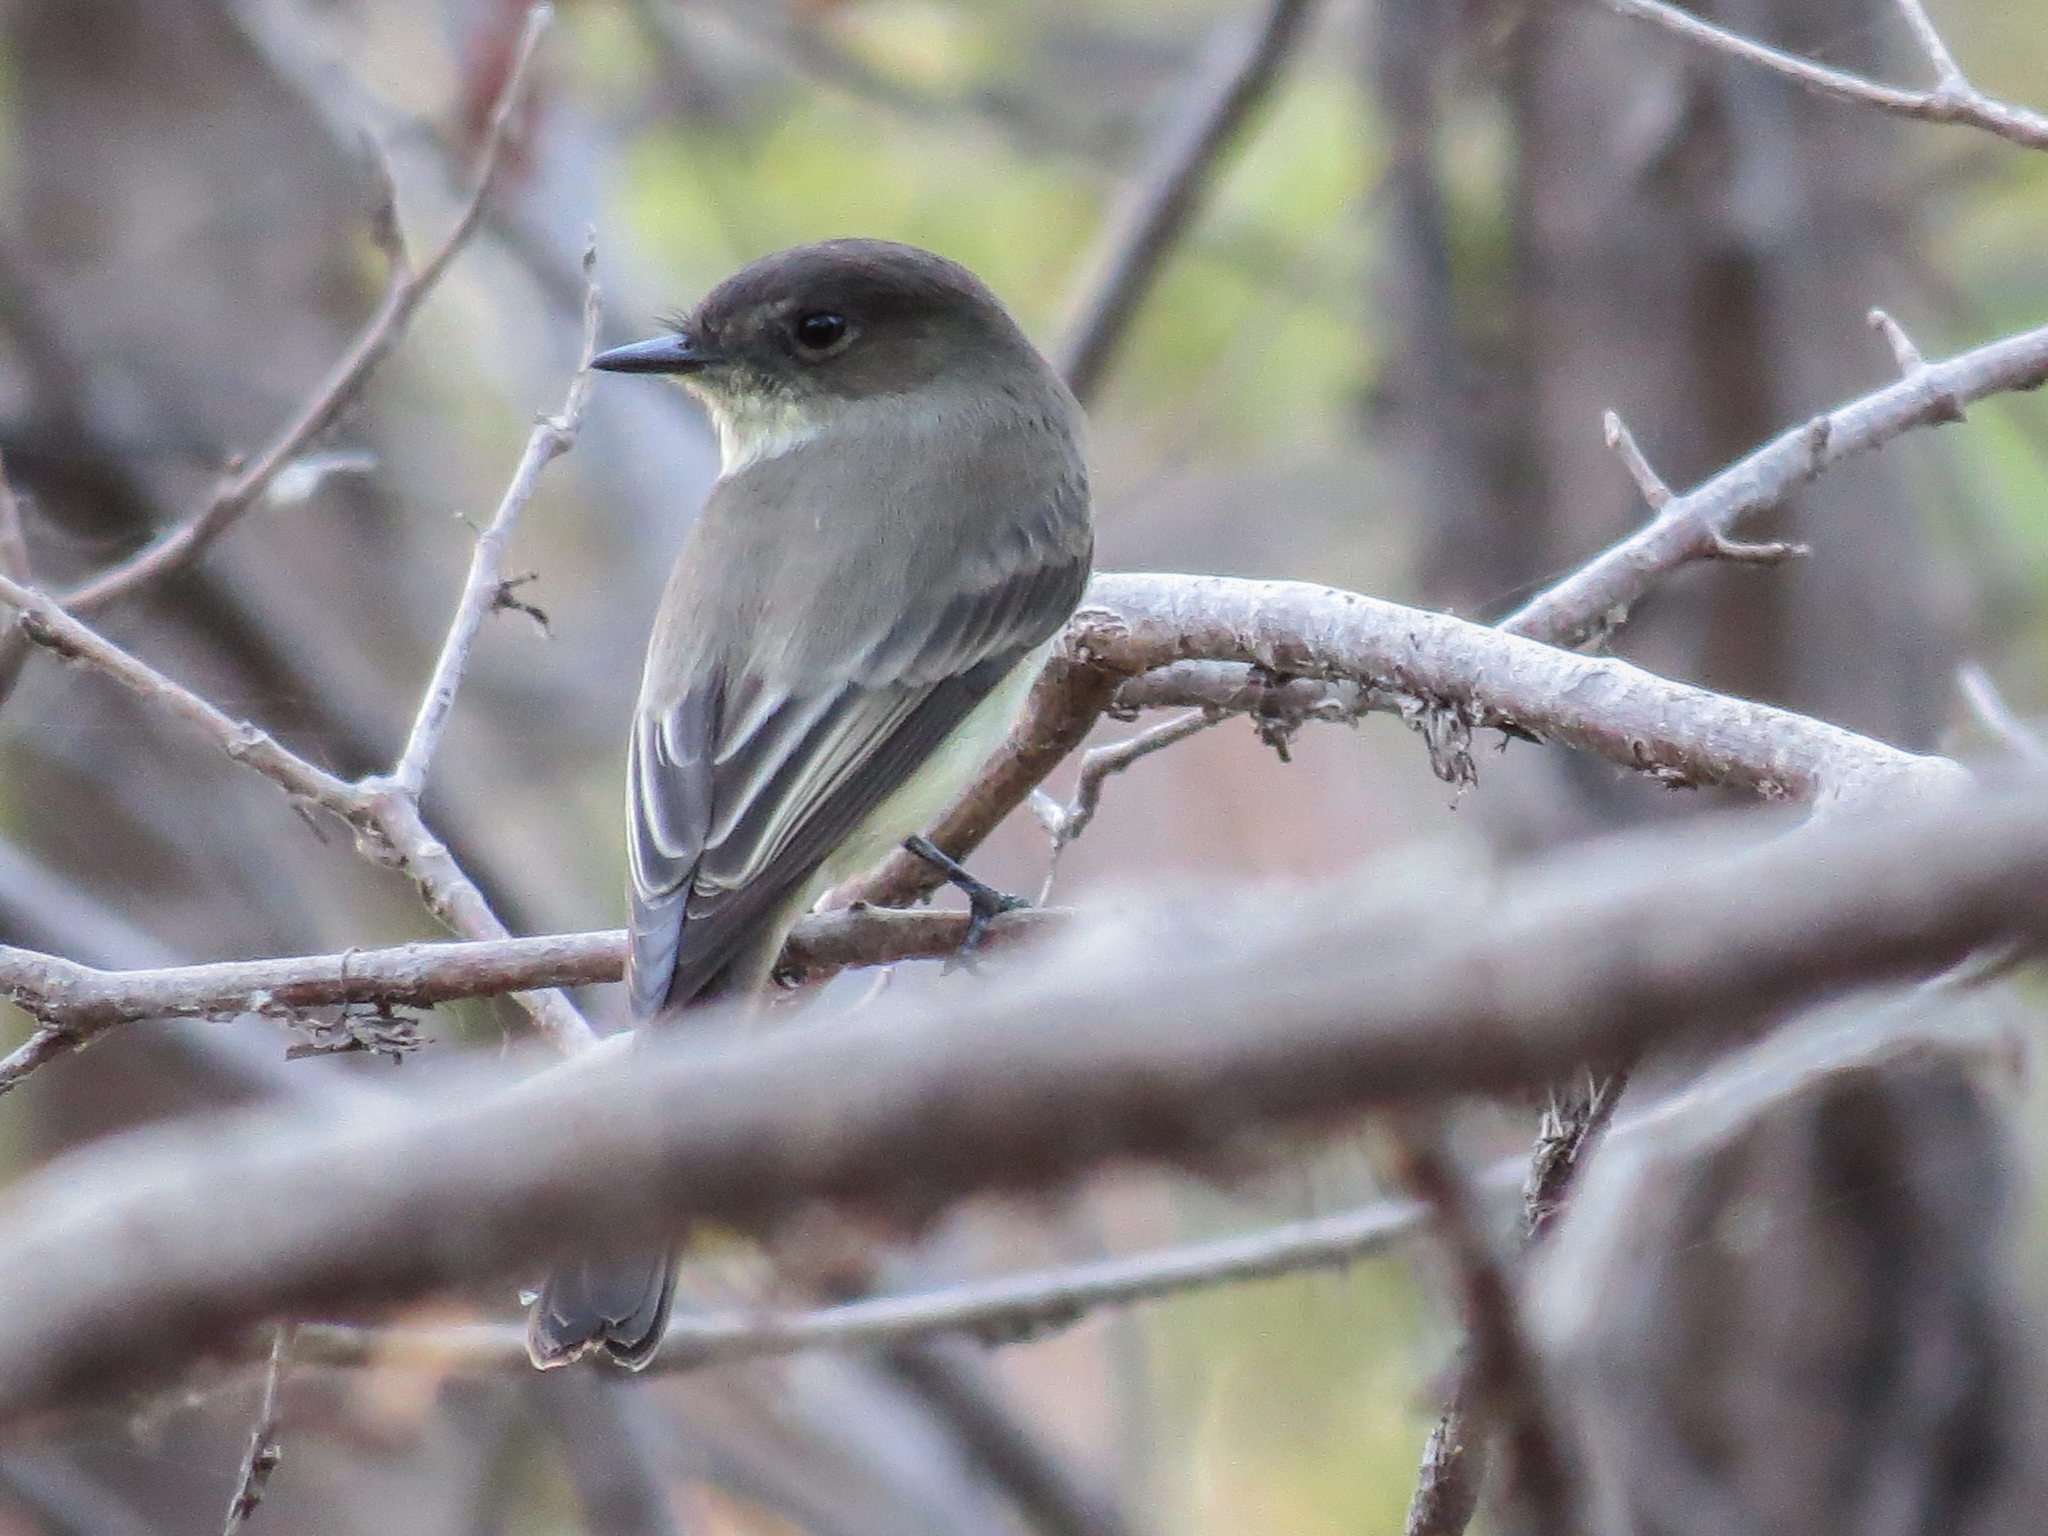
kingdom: Animalia
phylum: Chordata
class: Aves
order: Passeriformes
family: Tyrannidae
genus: Sayornis
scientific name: Sayornis phoebe
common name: Eastern phoebe
